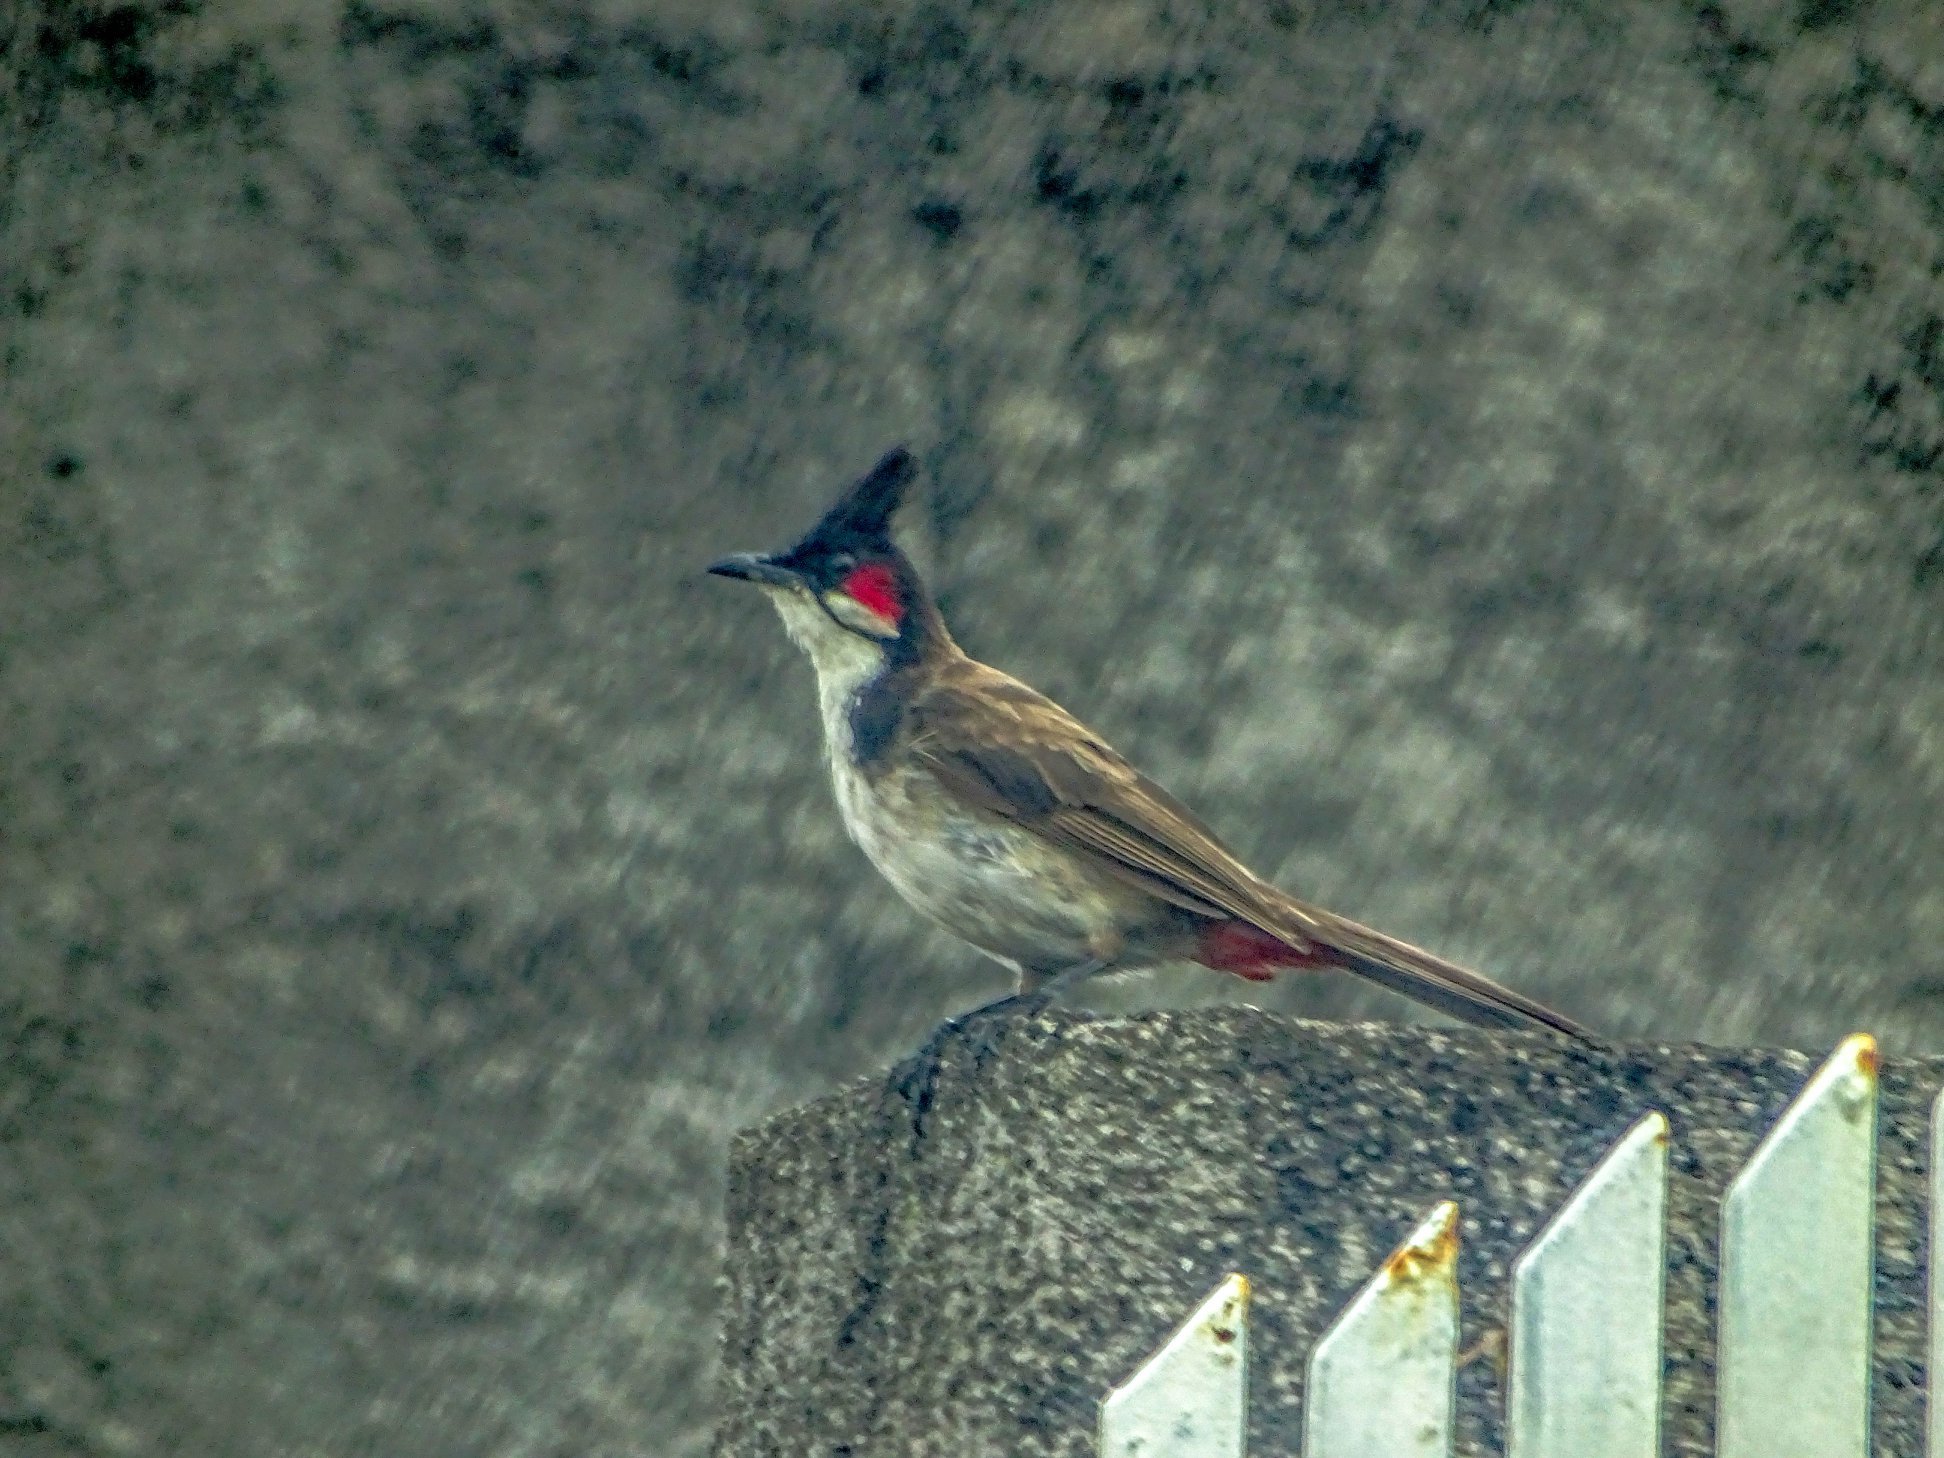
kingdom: Animalia
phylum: Chordata
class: Aves
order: Passeriformes
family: Pycnonotidae
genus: Pycnonotus
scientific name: Pycnonotus jocosus
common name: Red-whiskered bulbul
